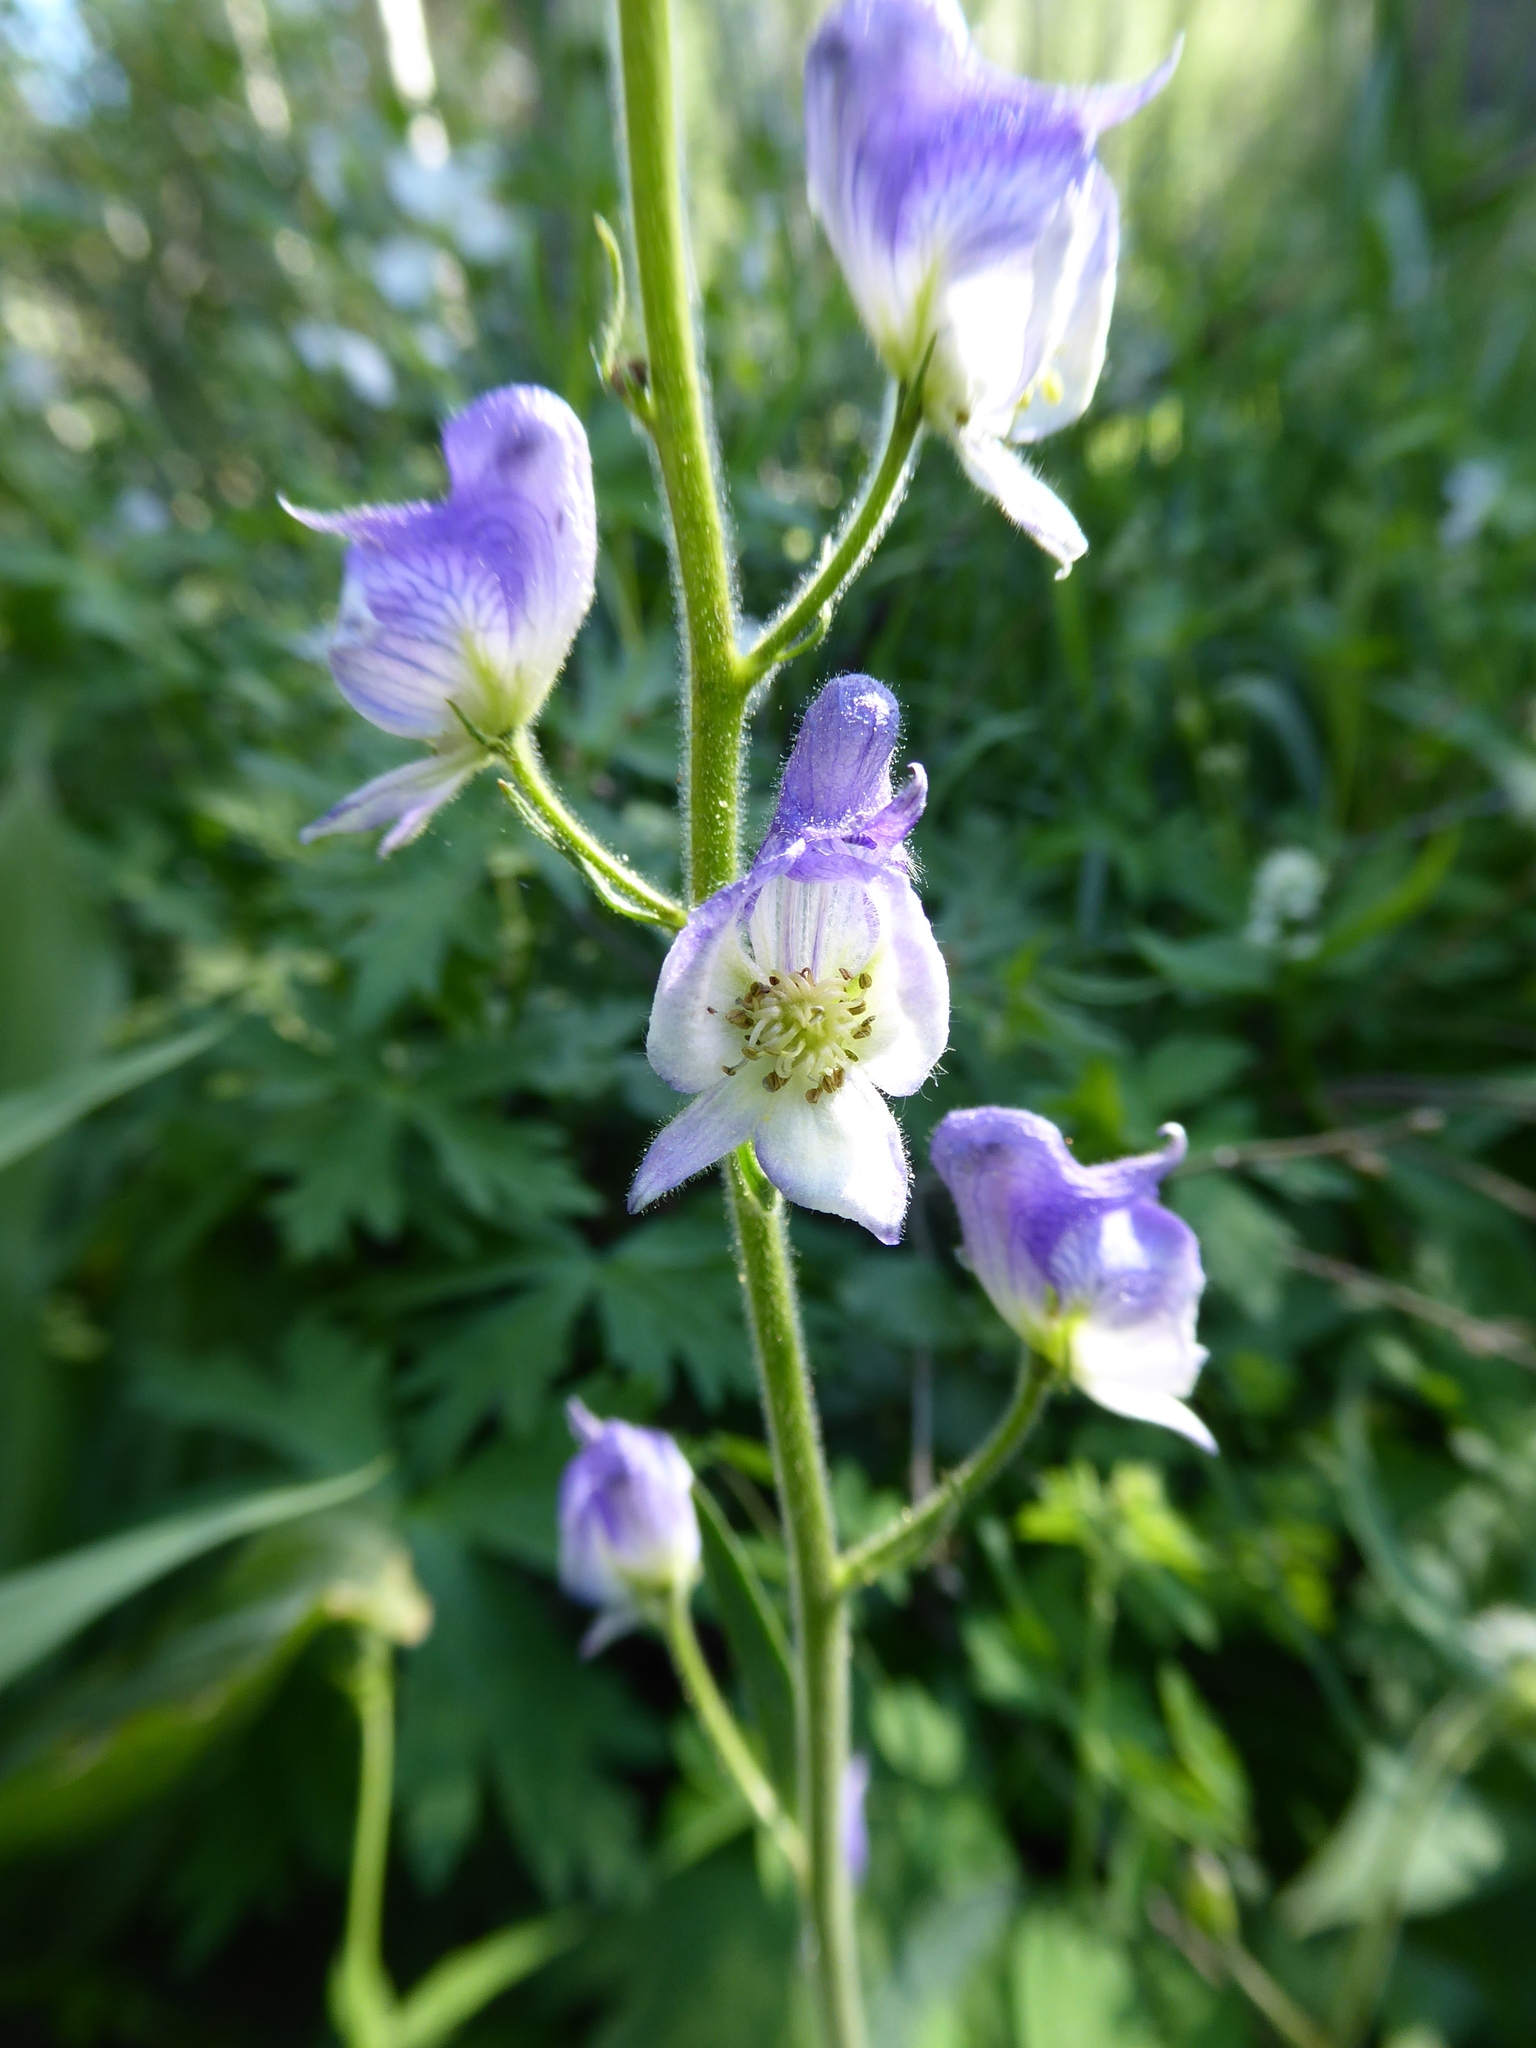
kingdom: Plantae
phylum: Tracheophyta
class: Magnoliopsida
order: Ranunculales
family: Ranunculaceae
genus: Aconitum
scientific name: Aconitum columbianum
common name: Columbia aconite
